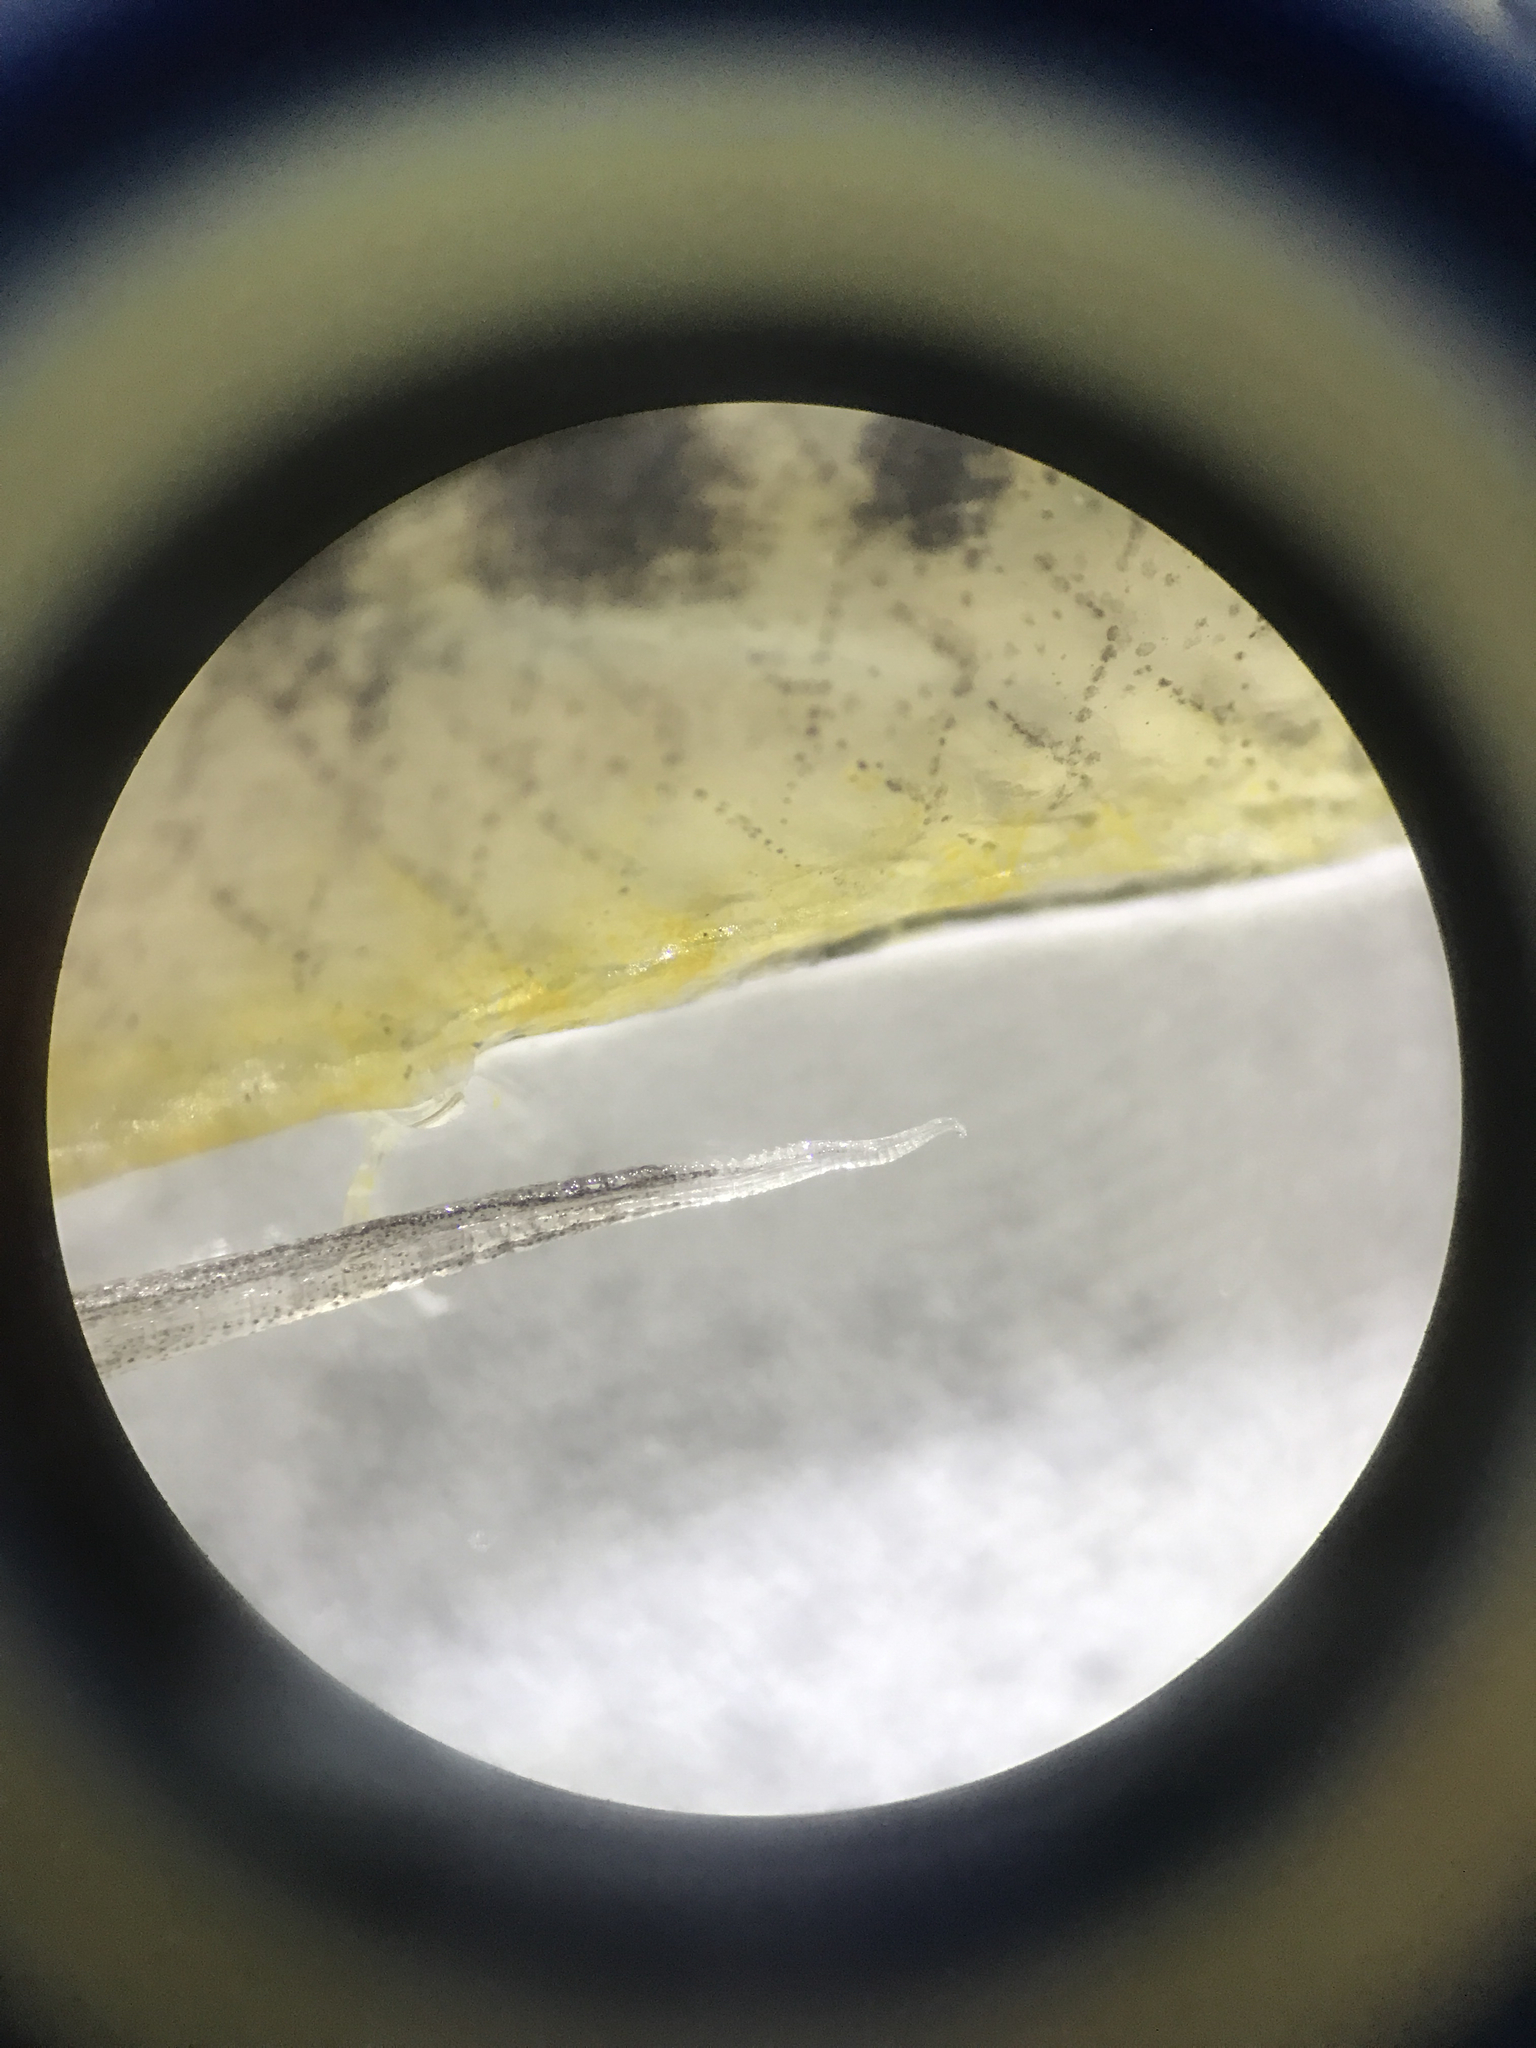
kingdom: Animalia
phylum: Chordata
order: Cyprinodontiformes
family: Poeciliidae
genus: Poeciliopsis
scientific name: Poeciliopsis gracilis
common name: Porthole livebearer
